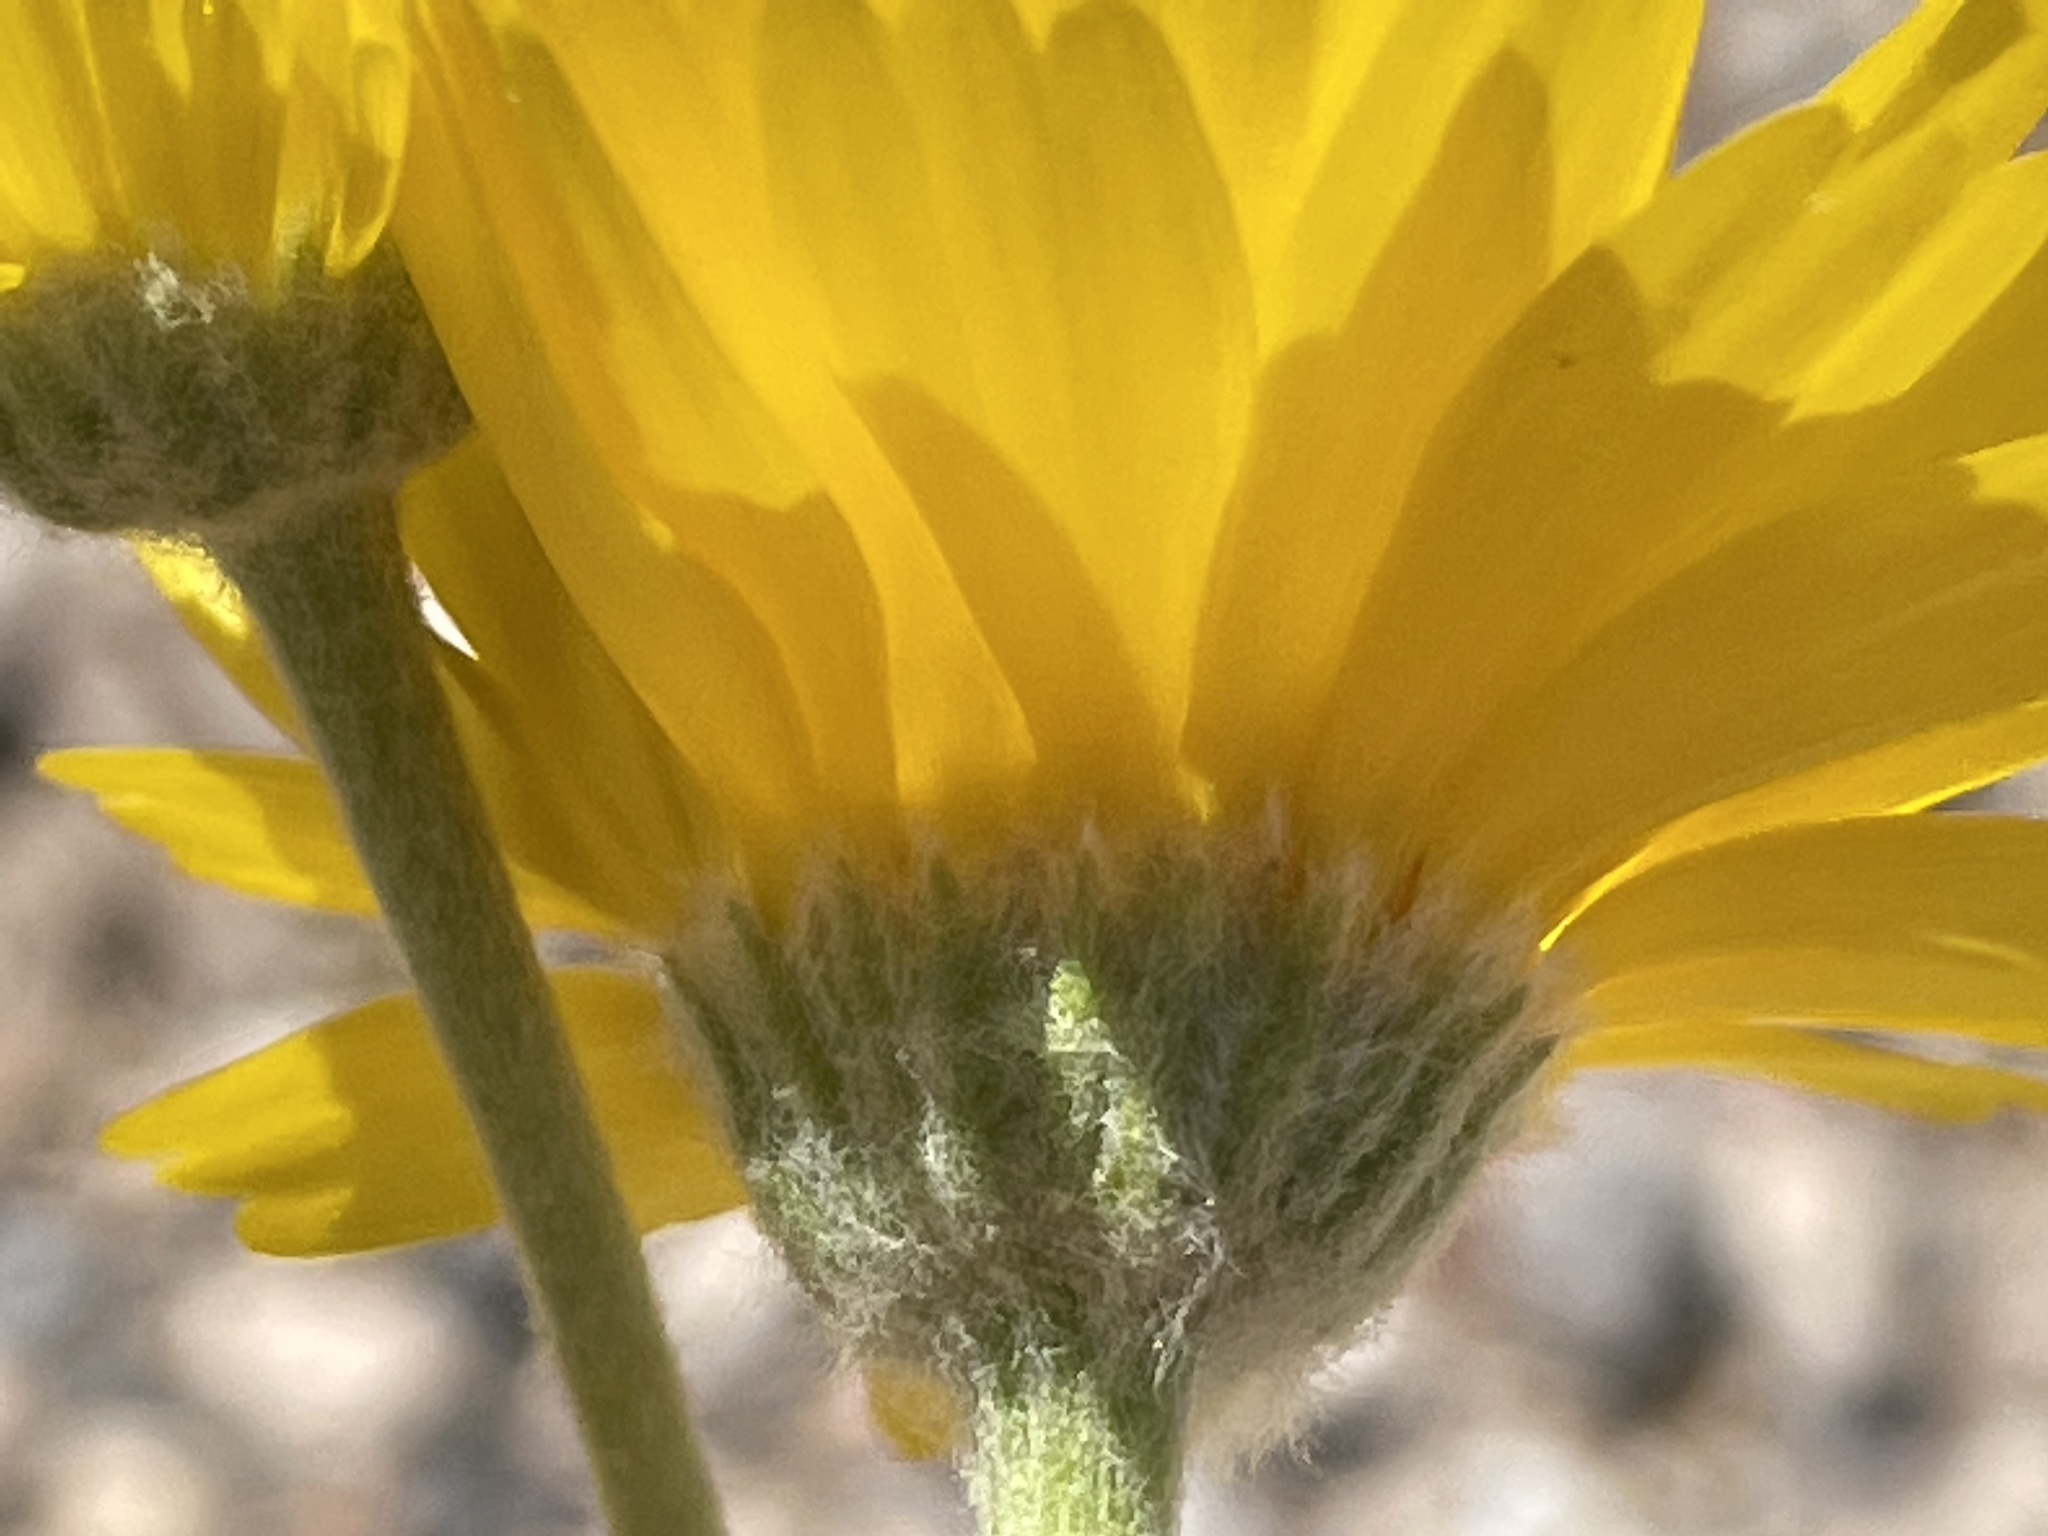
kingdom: Plantae
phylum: Tracheophyta
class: Magnoliopsida
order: Asterales
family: Asteraceae
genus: Baileya
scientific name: Baileya multiradiata
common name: Desert-marigold
